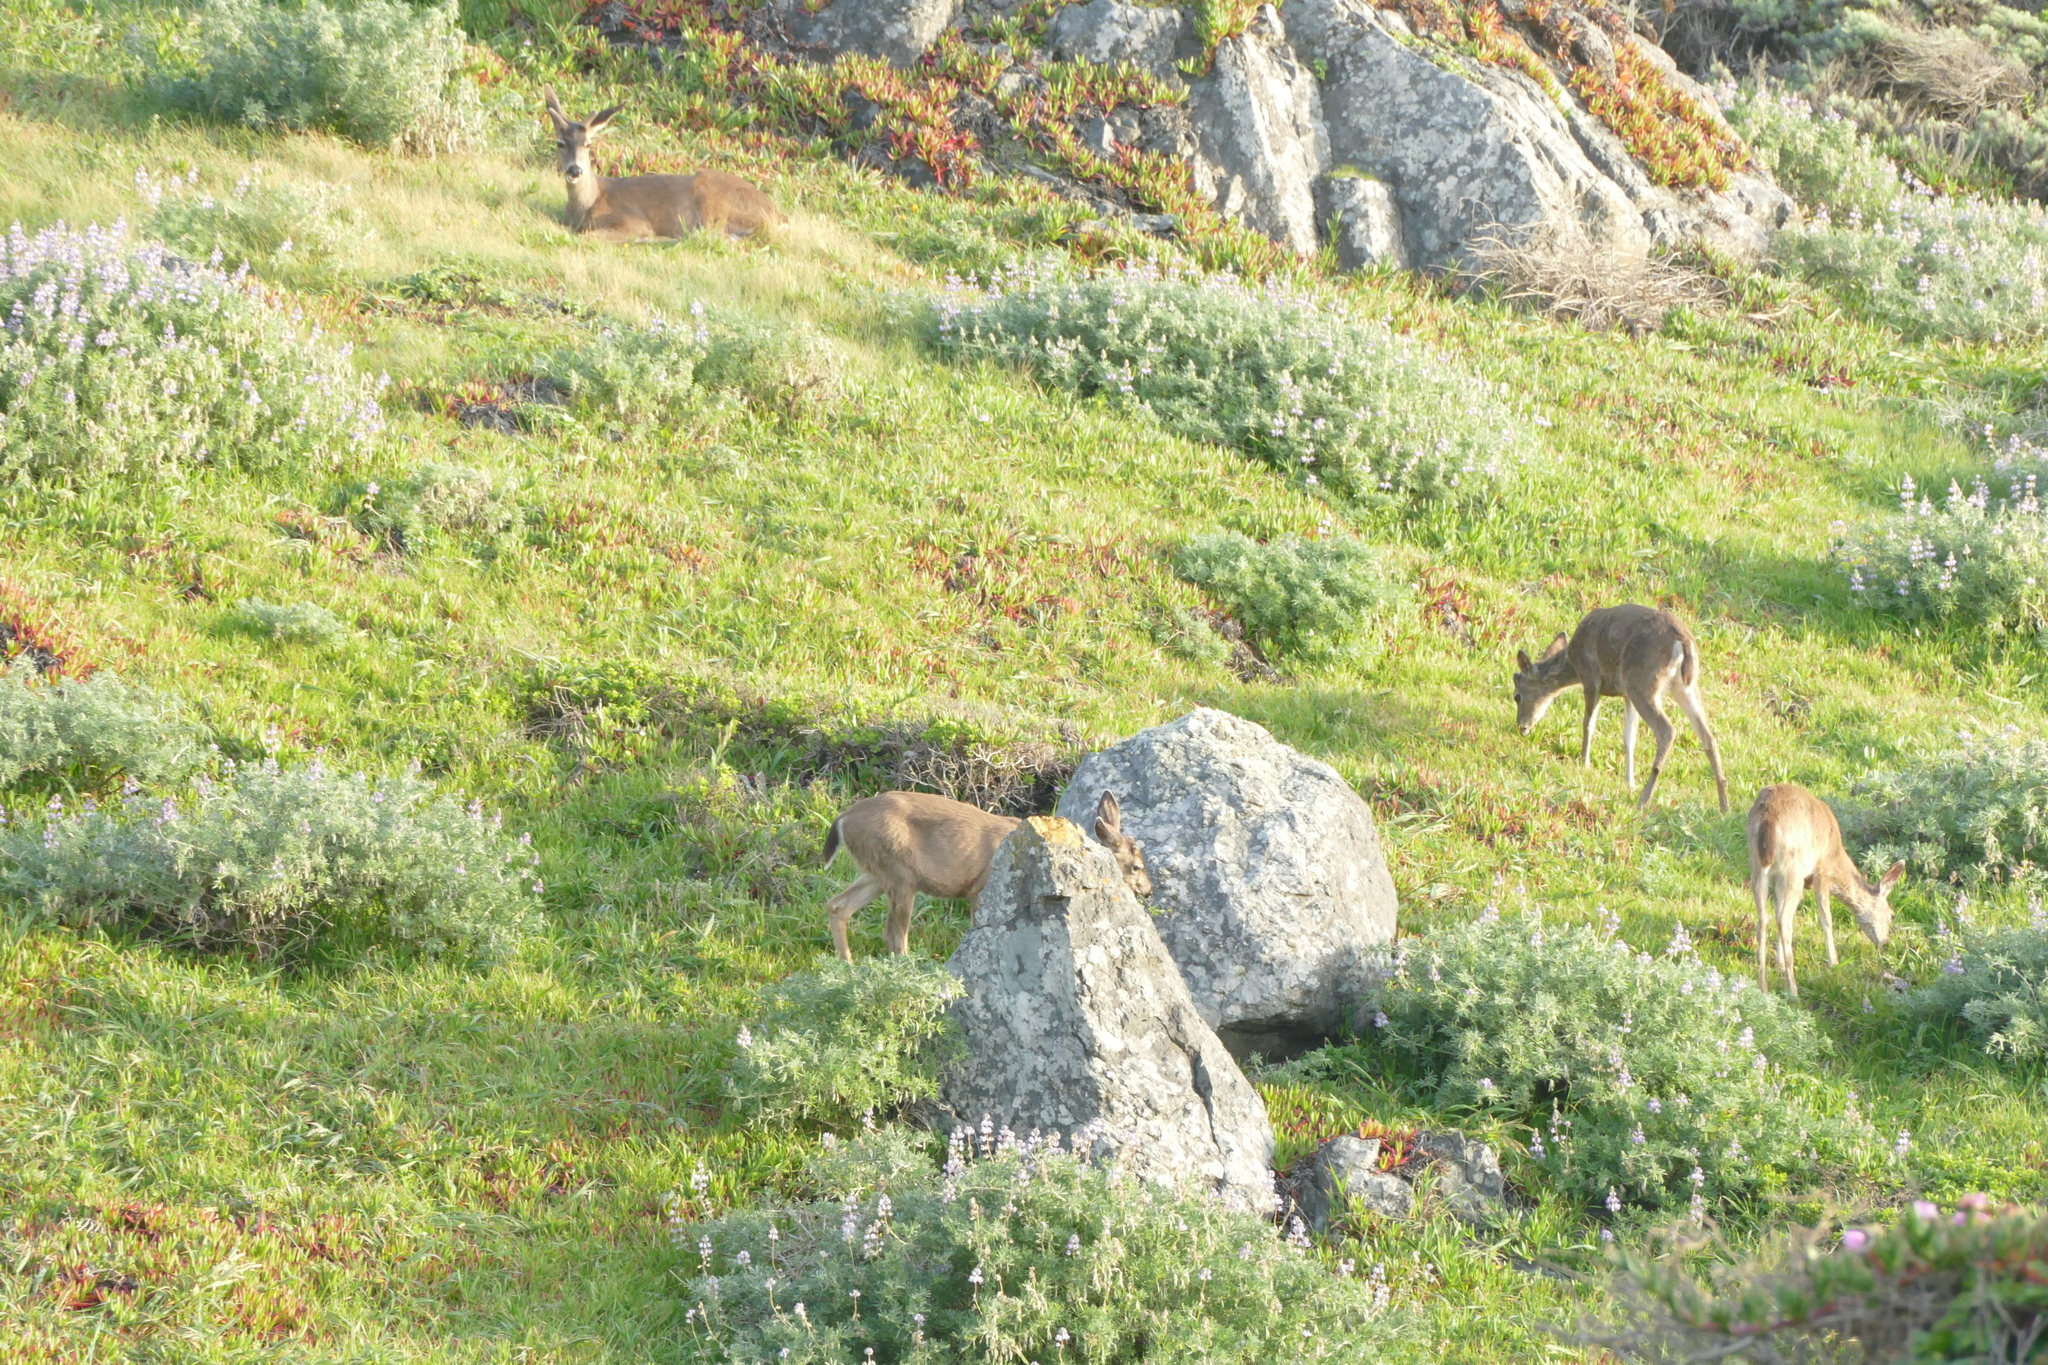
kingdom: Animalia
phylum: Chordata
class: Mammalia
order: Artiodactyla
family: Cervidae
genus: Odocoileus
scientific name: Odocoileus hemionus
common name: Mule deer
